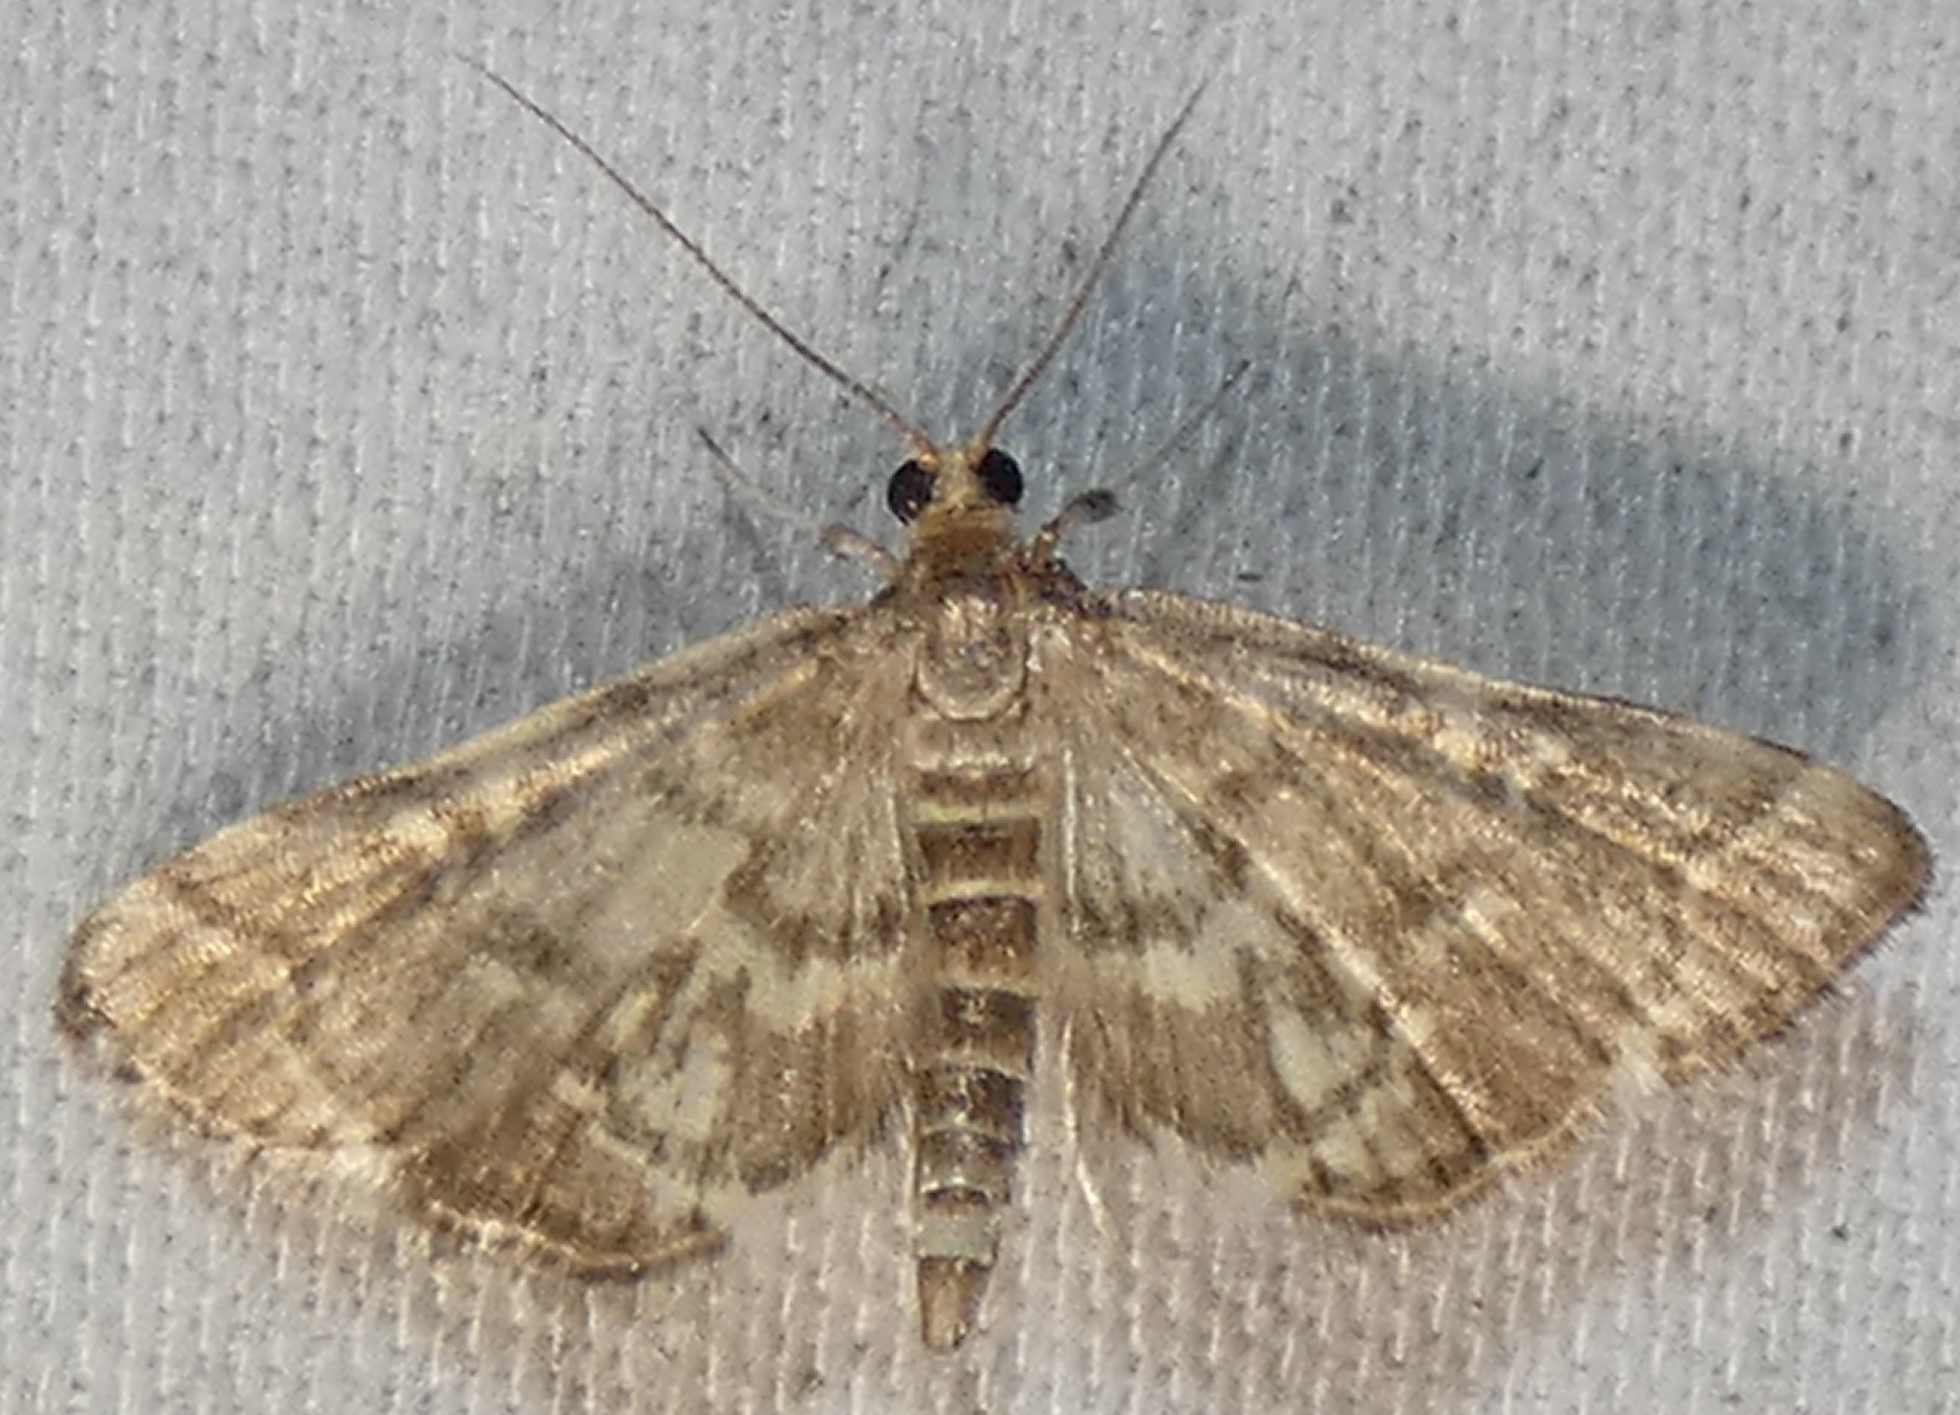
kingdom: Animalia
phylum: Arthropoda
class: Insecta
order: Lepidoptera
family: Crambidae
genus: Anageshna
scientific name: Anageshna primordialis
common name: Yellow-spotted webworm moth
